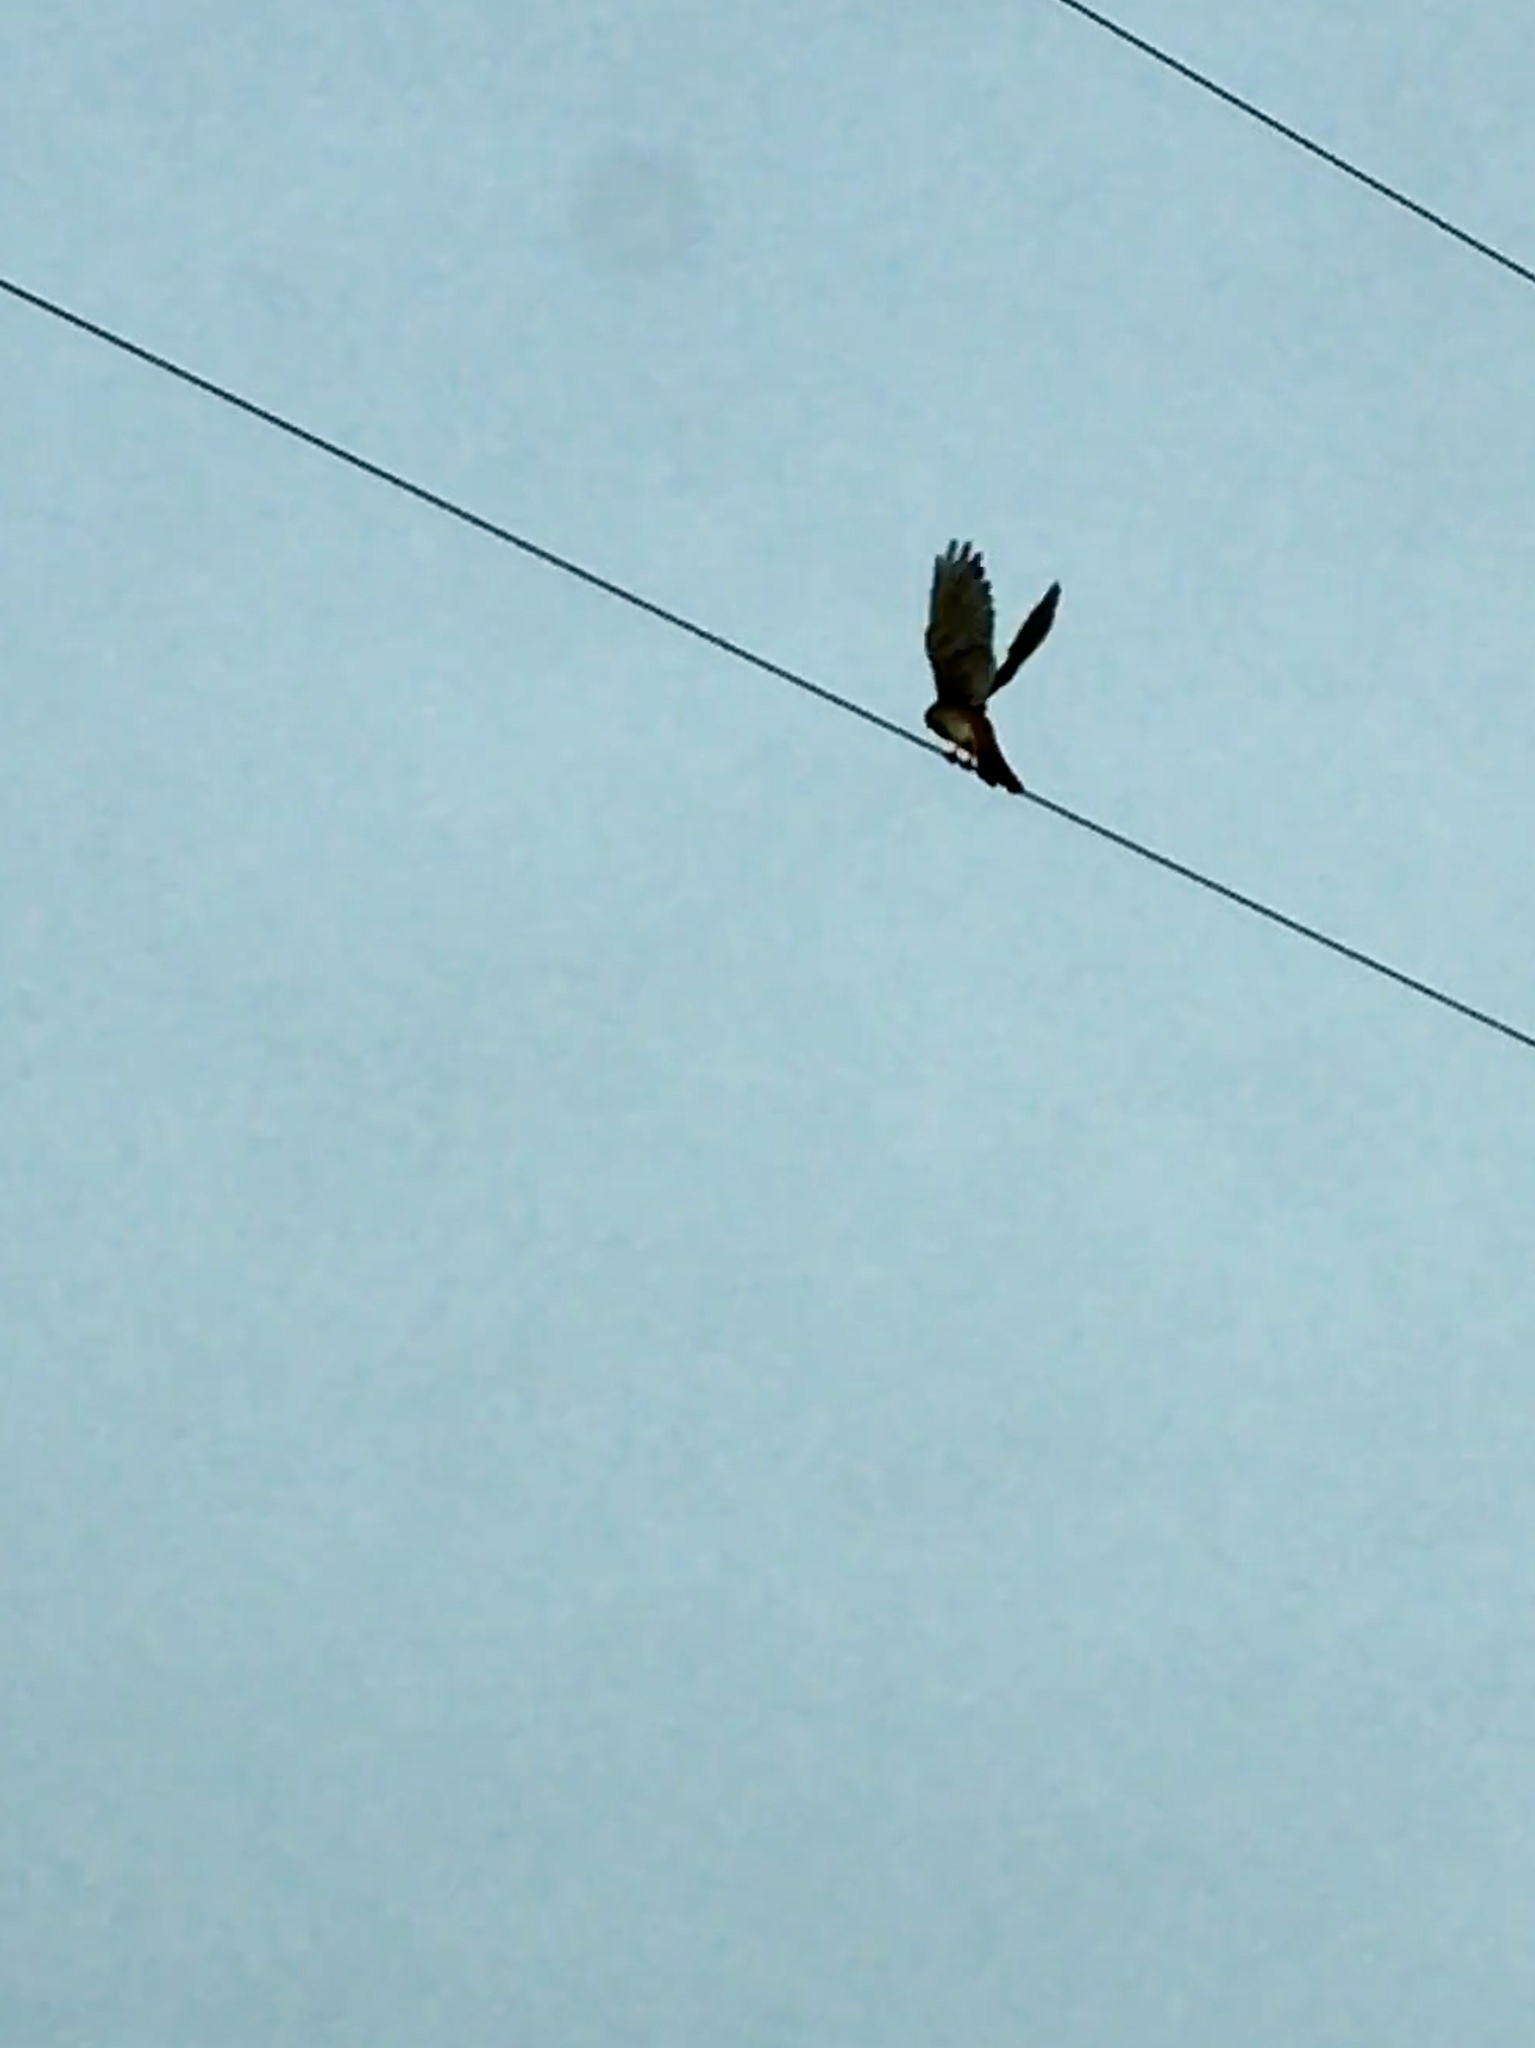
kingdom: Animalia
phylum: Chordata
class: Aves
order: Falconiformes
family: Falconidae
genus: Falco
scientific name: Falco sparverius
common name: American kestrel
